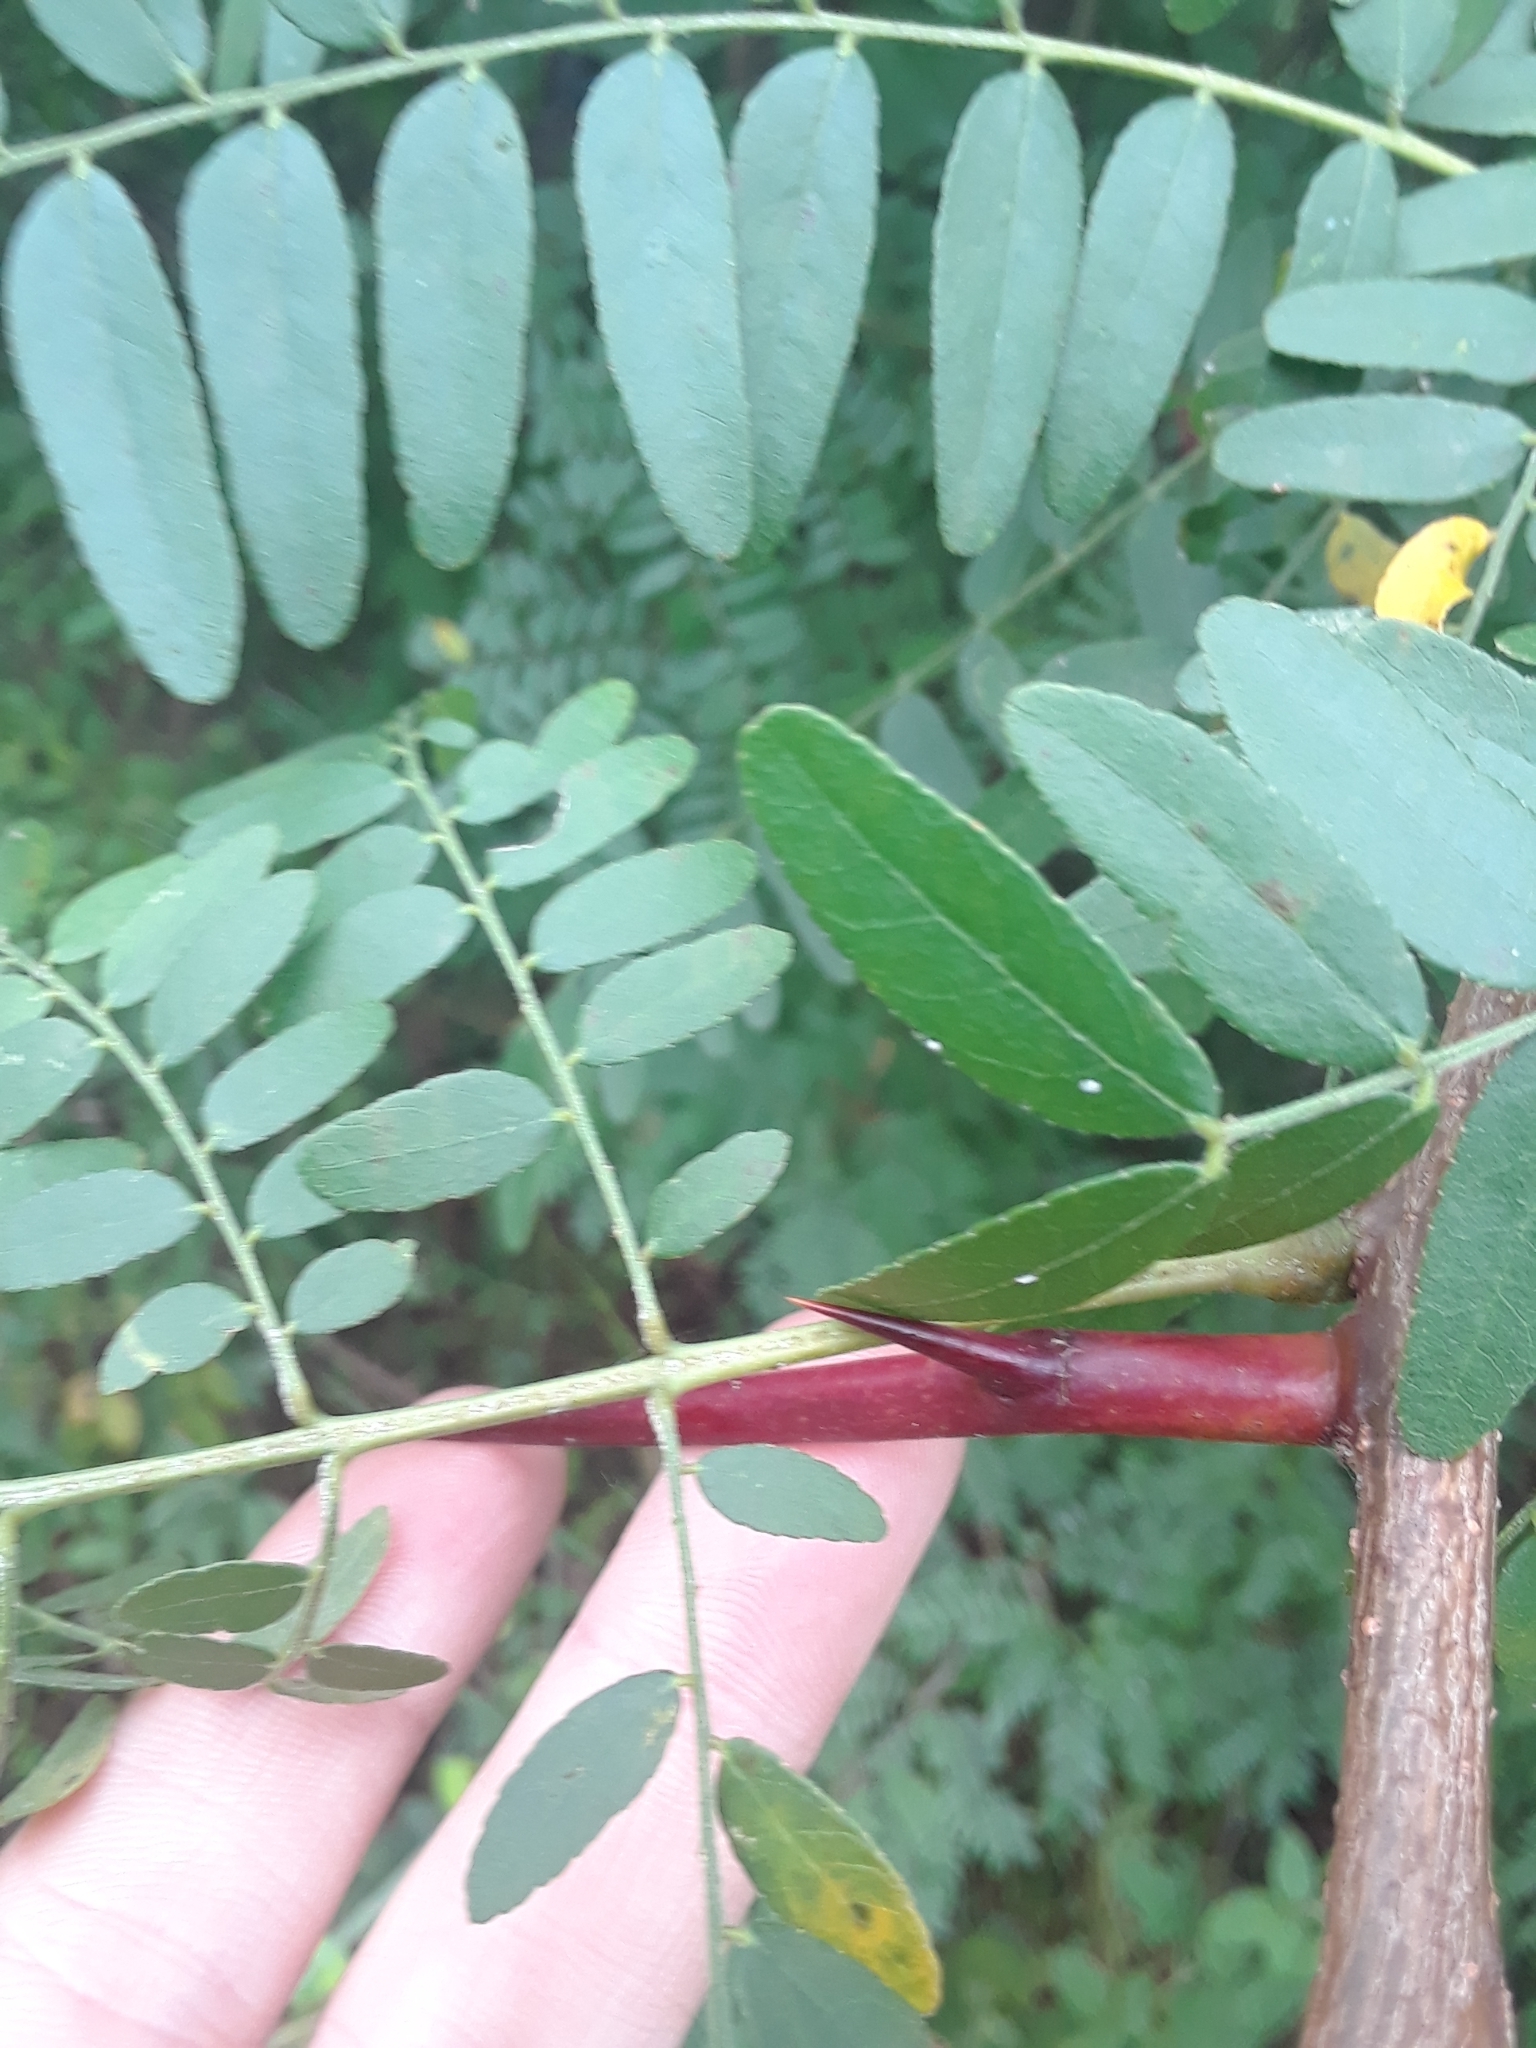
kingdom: Plantae
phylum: Tracheophyta
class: Magnoliopsida
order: Fabales
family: Fabaceae
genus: Gleditsia
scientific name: Gleditsia triacanthos
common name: Common honeylocust
